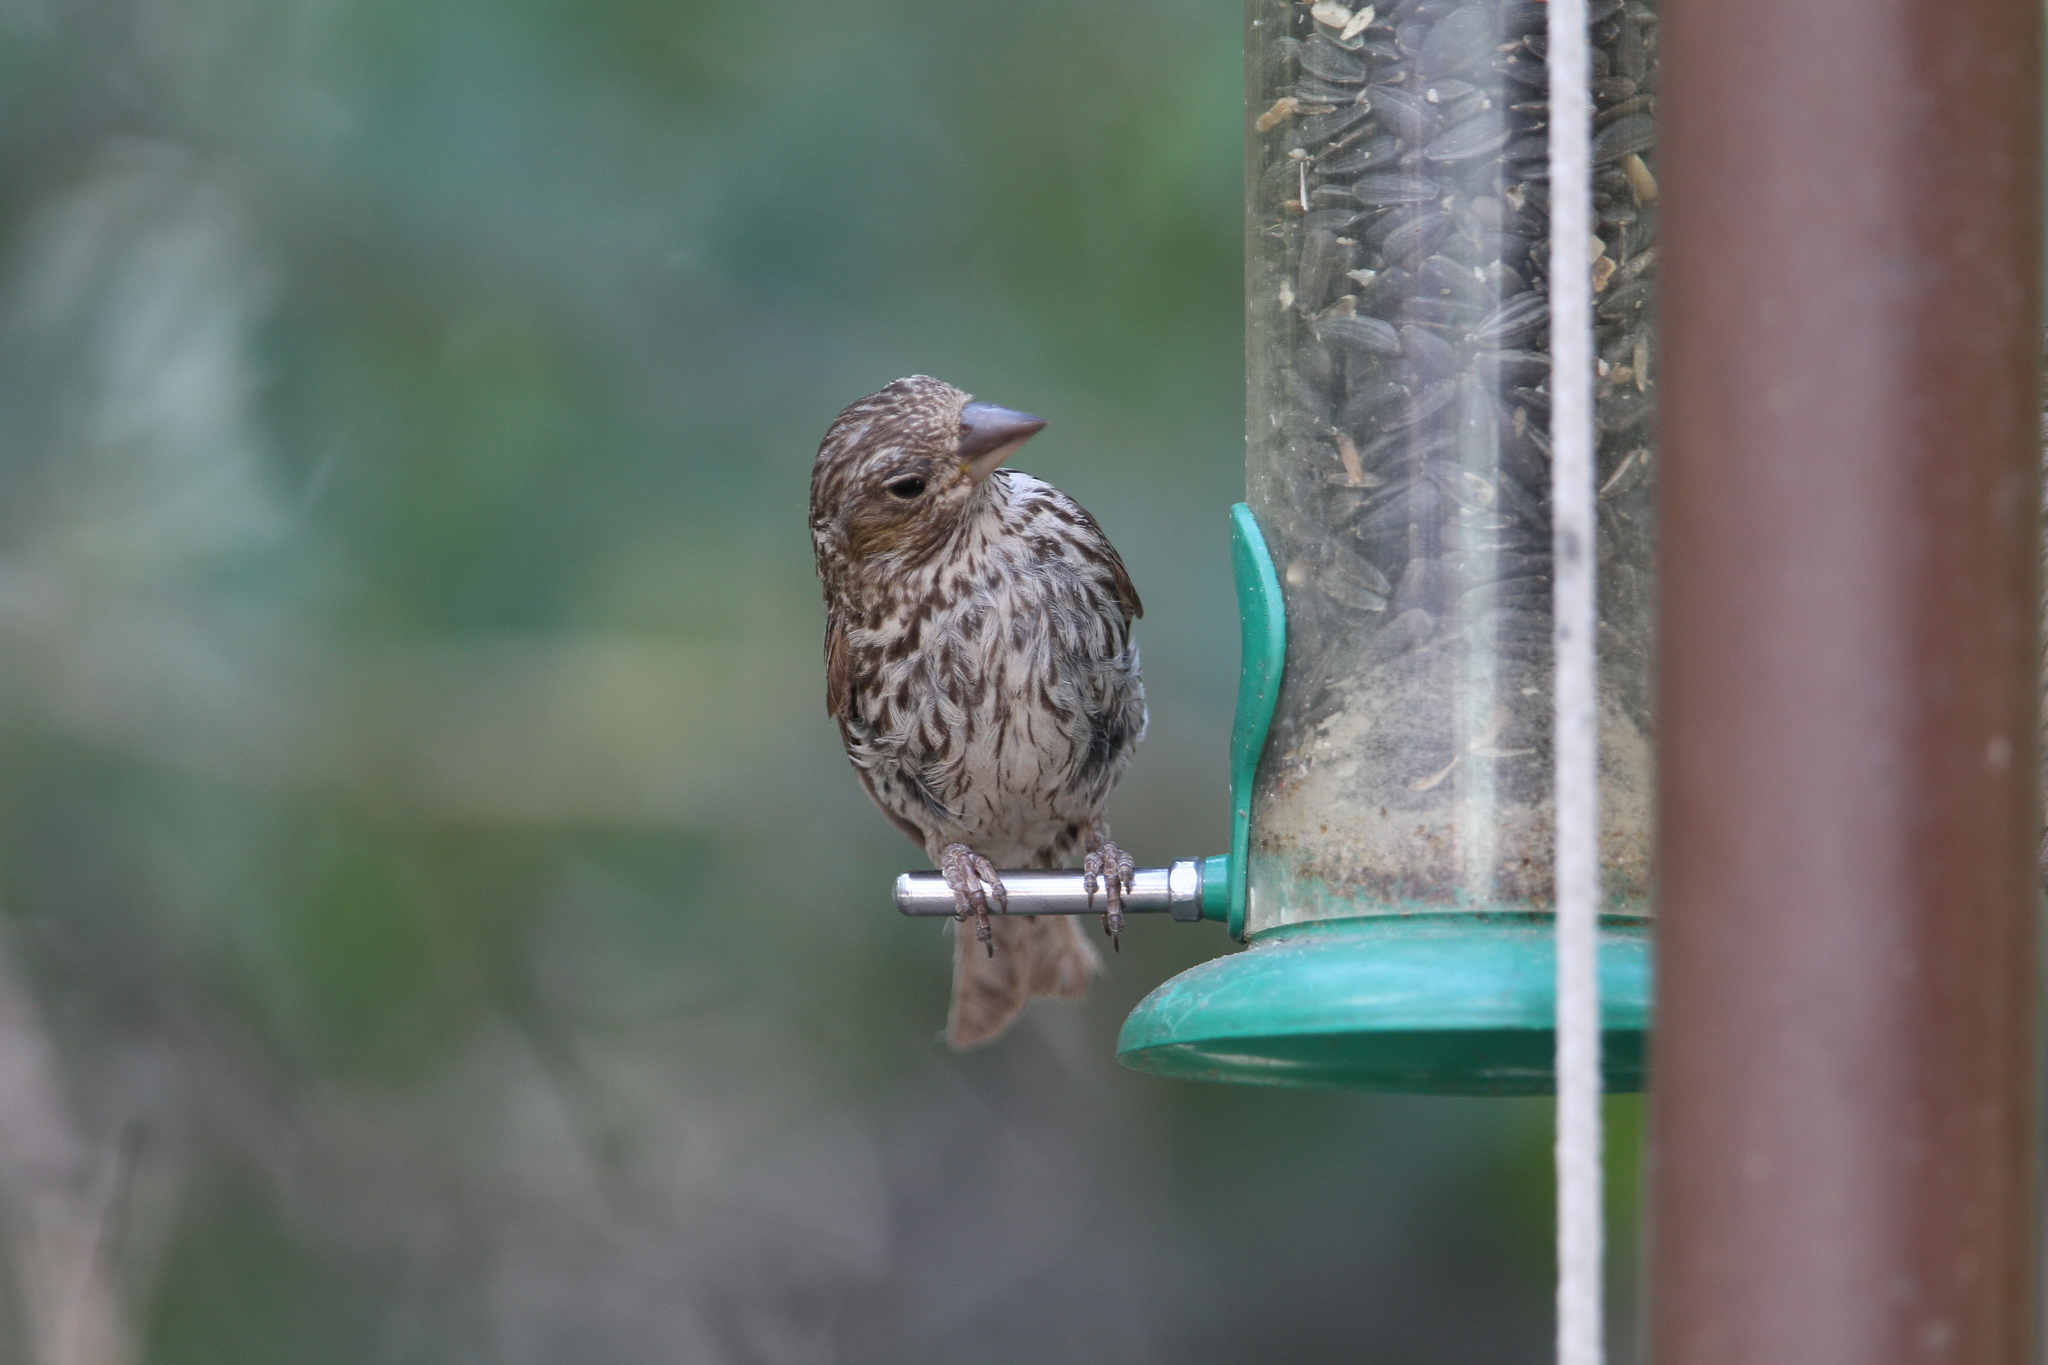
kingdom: Animalia
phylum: Chordata
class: Aves
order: Passeriformes
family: Fringillidae
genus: Haemorhous
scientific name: Haemorhous cassinii
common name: Cassin's finch
